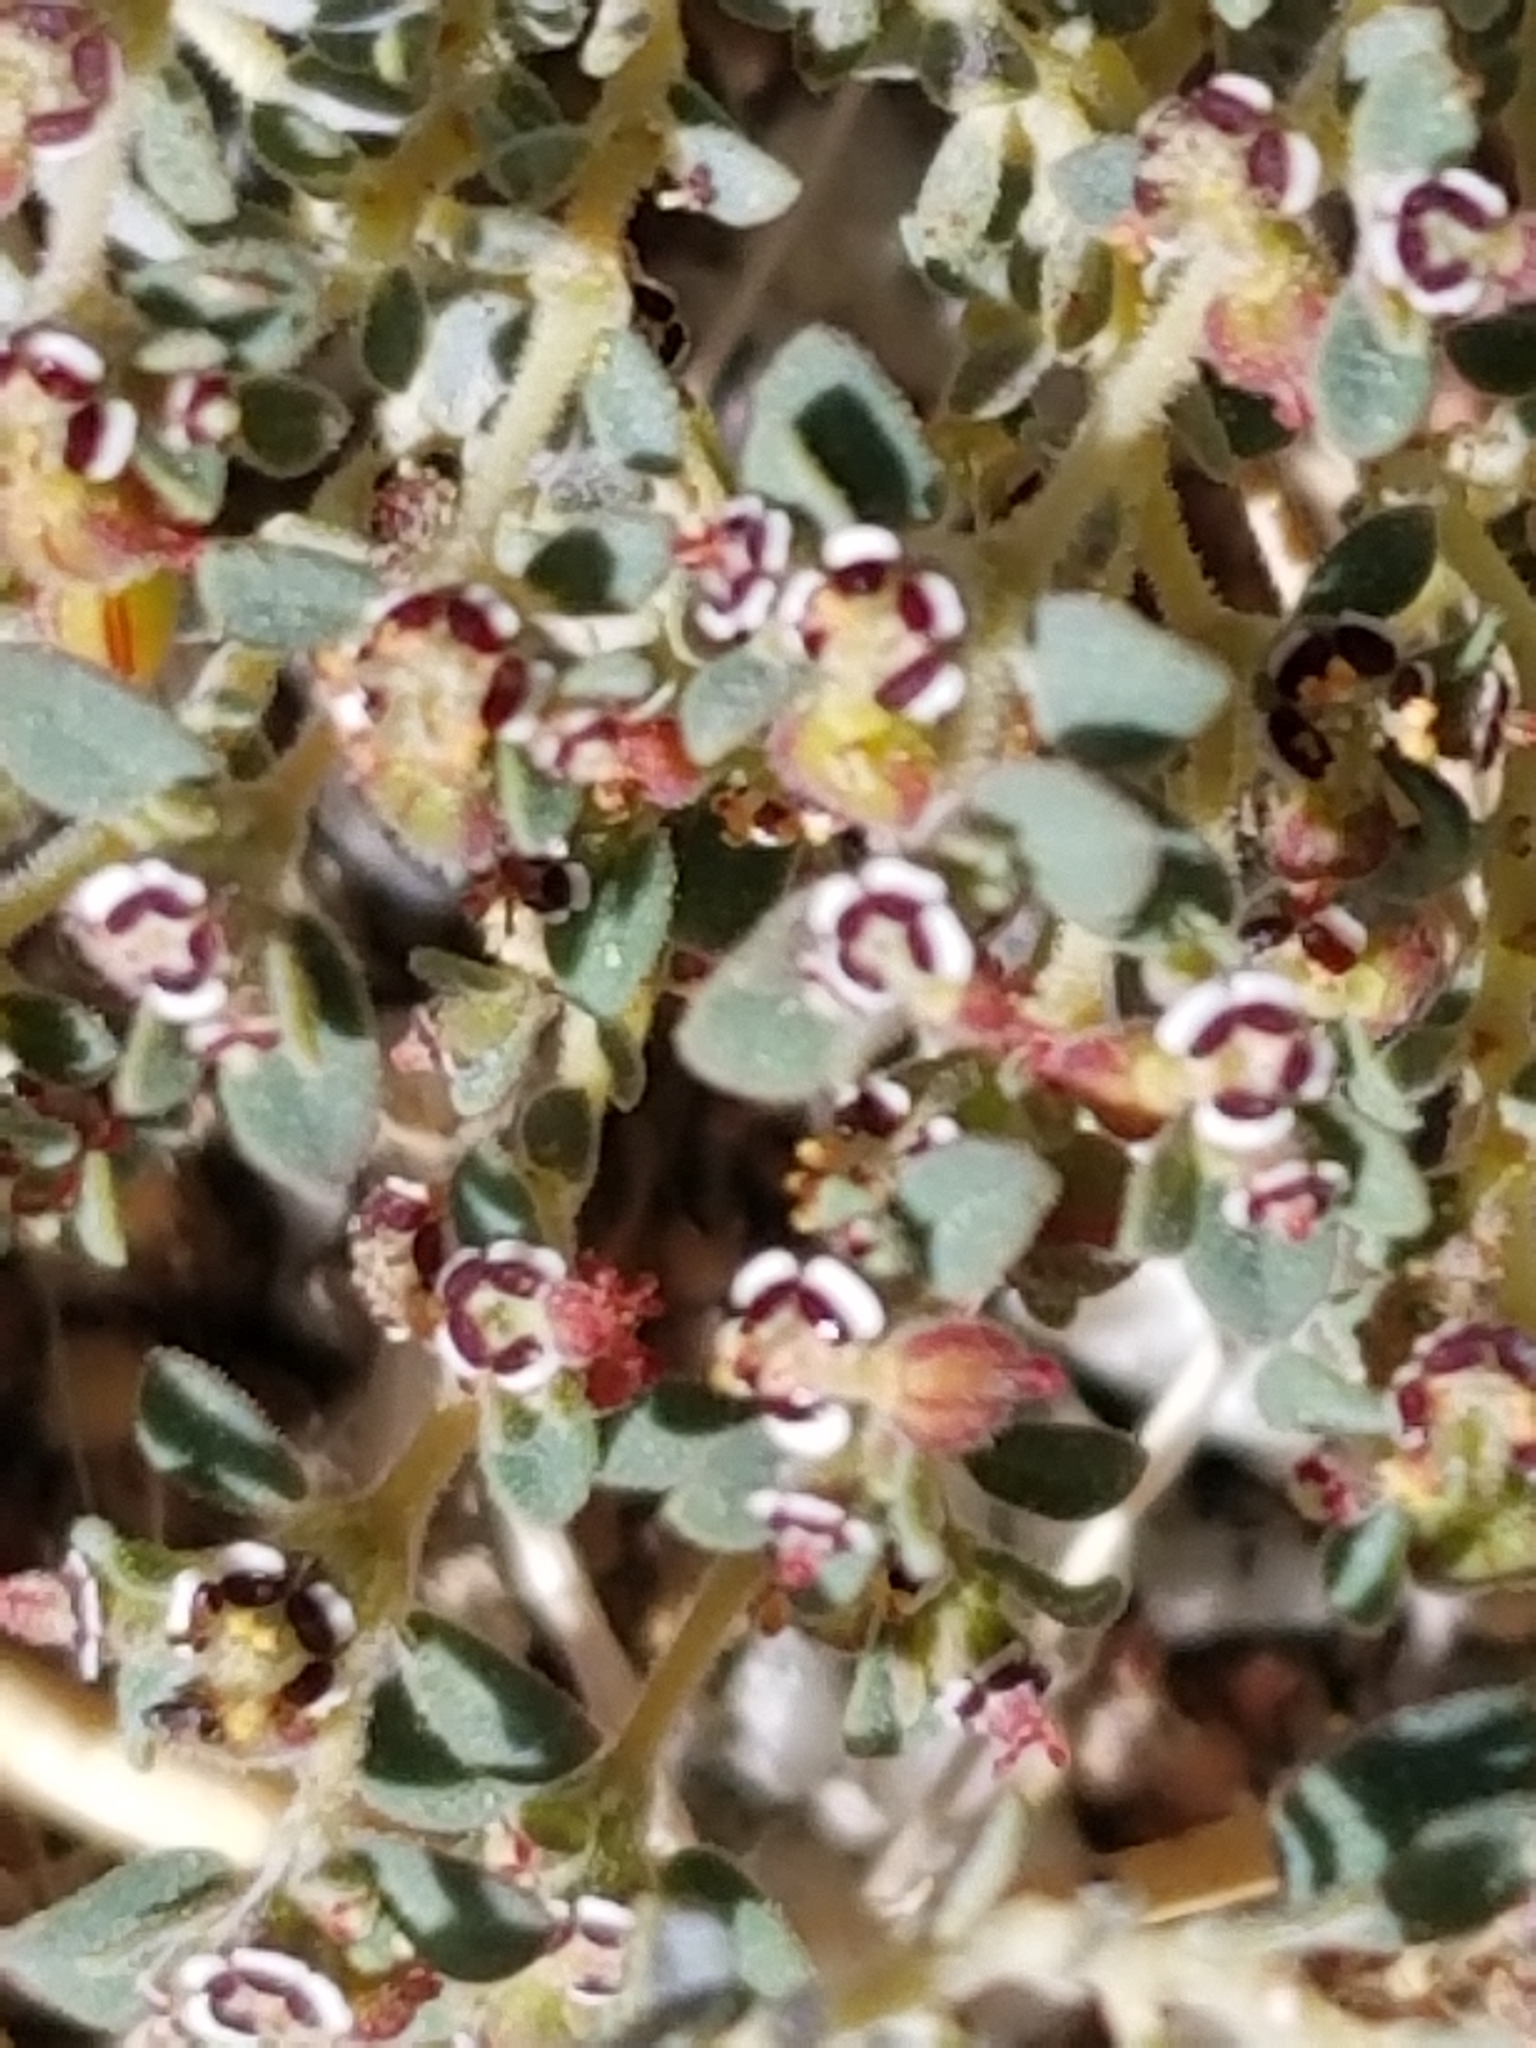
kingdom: Plantae
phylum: Tracheophyta
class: Magnoliopsida
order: Malpighiales
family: Euphorbiaceae
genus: Euphorbia
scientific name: Euphorbia polycarpa
